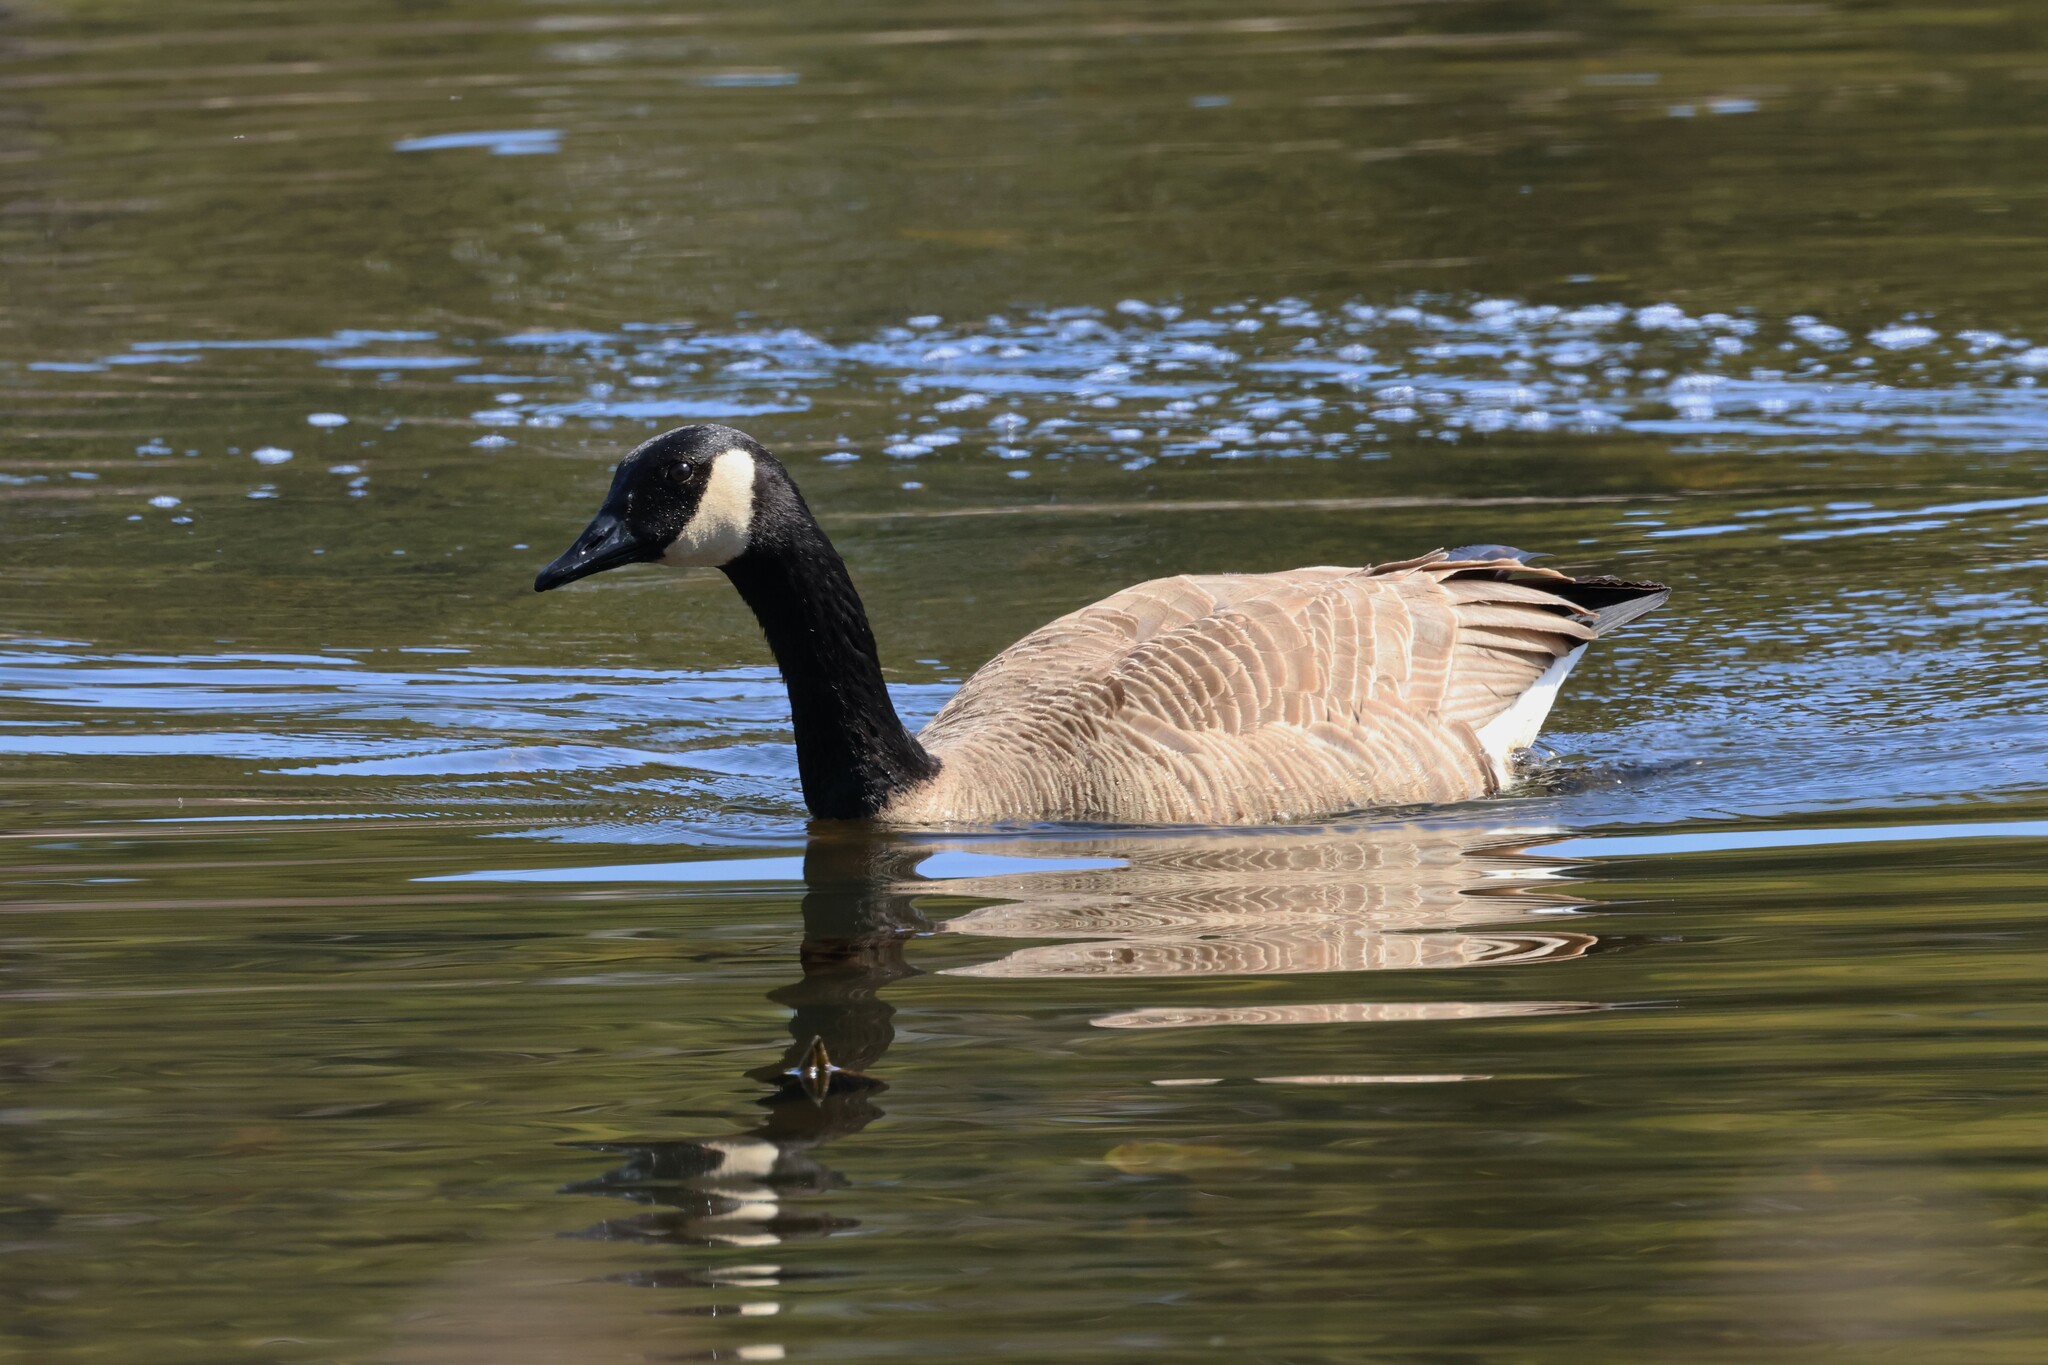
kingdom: Animalia
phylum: Chordata
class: Aves
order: Anseriformes
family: Anatidae
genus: Branta
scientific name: Branta canadensis
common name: Canada goose
